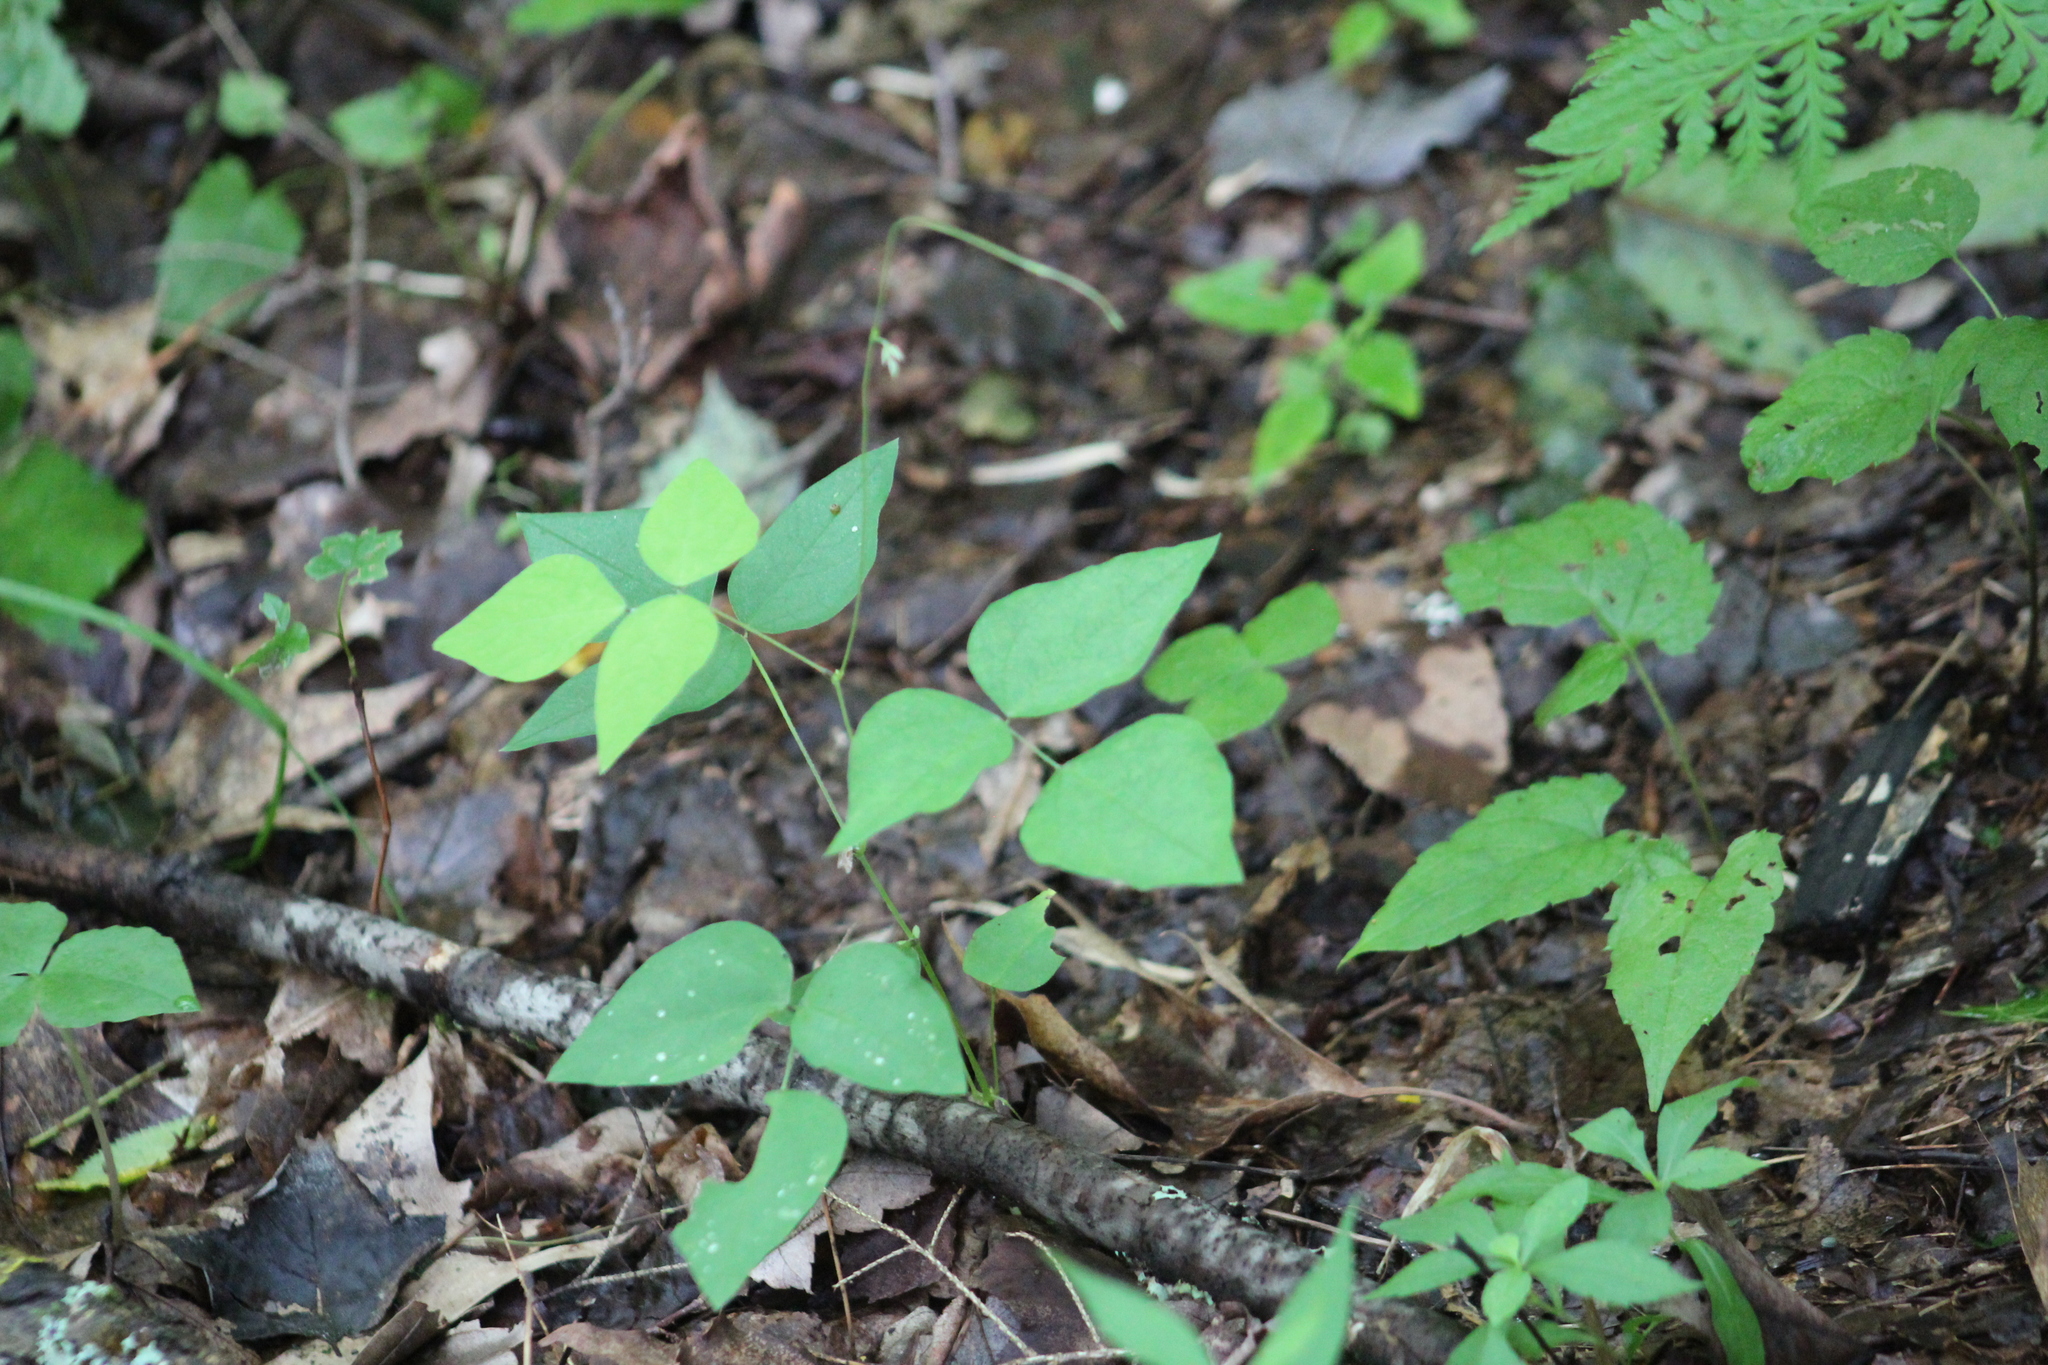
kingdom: Plantae
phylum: Tracheophyta
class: Magnoliopsida
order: Fabales
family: Fabaceae
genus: Amphicarpaea
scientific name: Amphicarpaea bracteata
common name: American hog peanut
